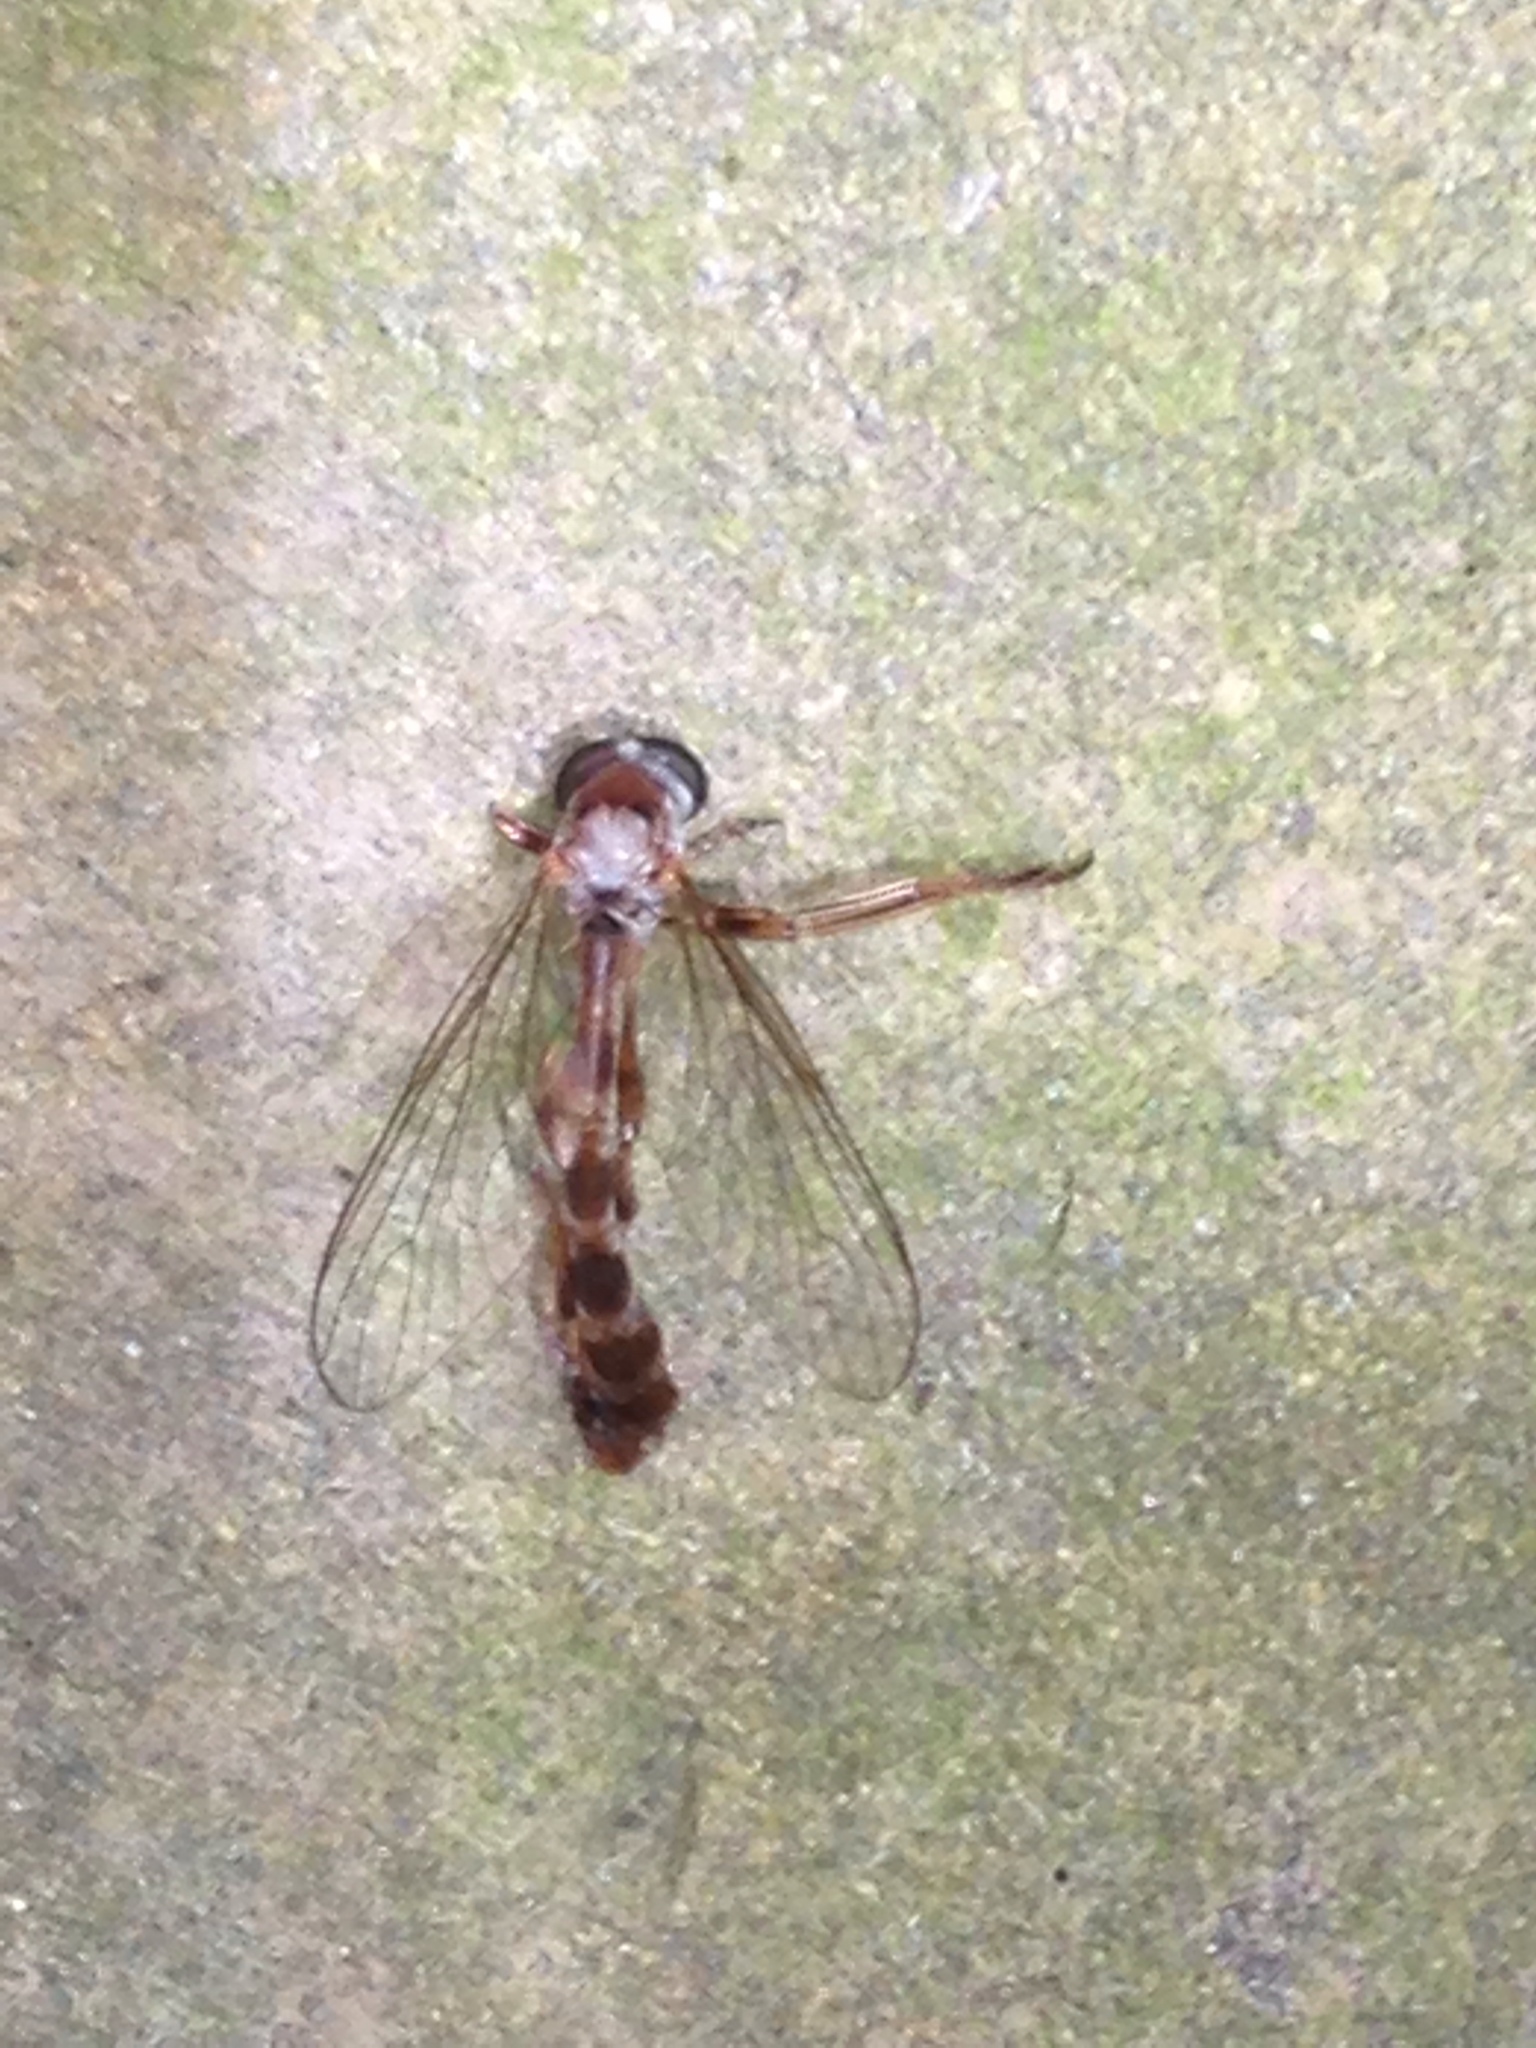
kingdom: Animalia
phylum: Arthropoda
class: Insecta
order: Diptera
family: Asilidae
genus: Tipulogaster
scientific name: Tipulogaster glabrata
